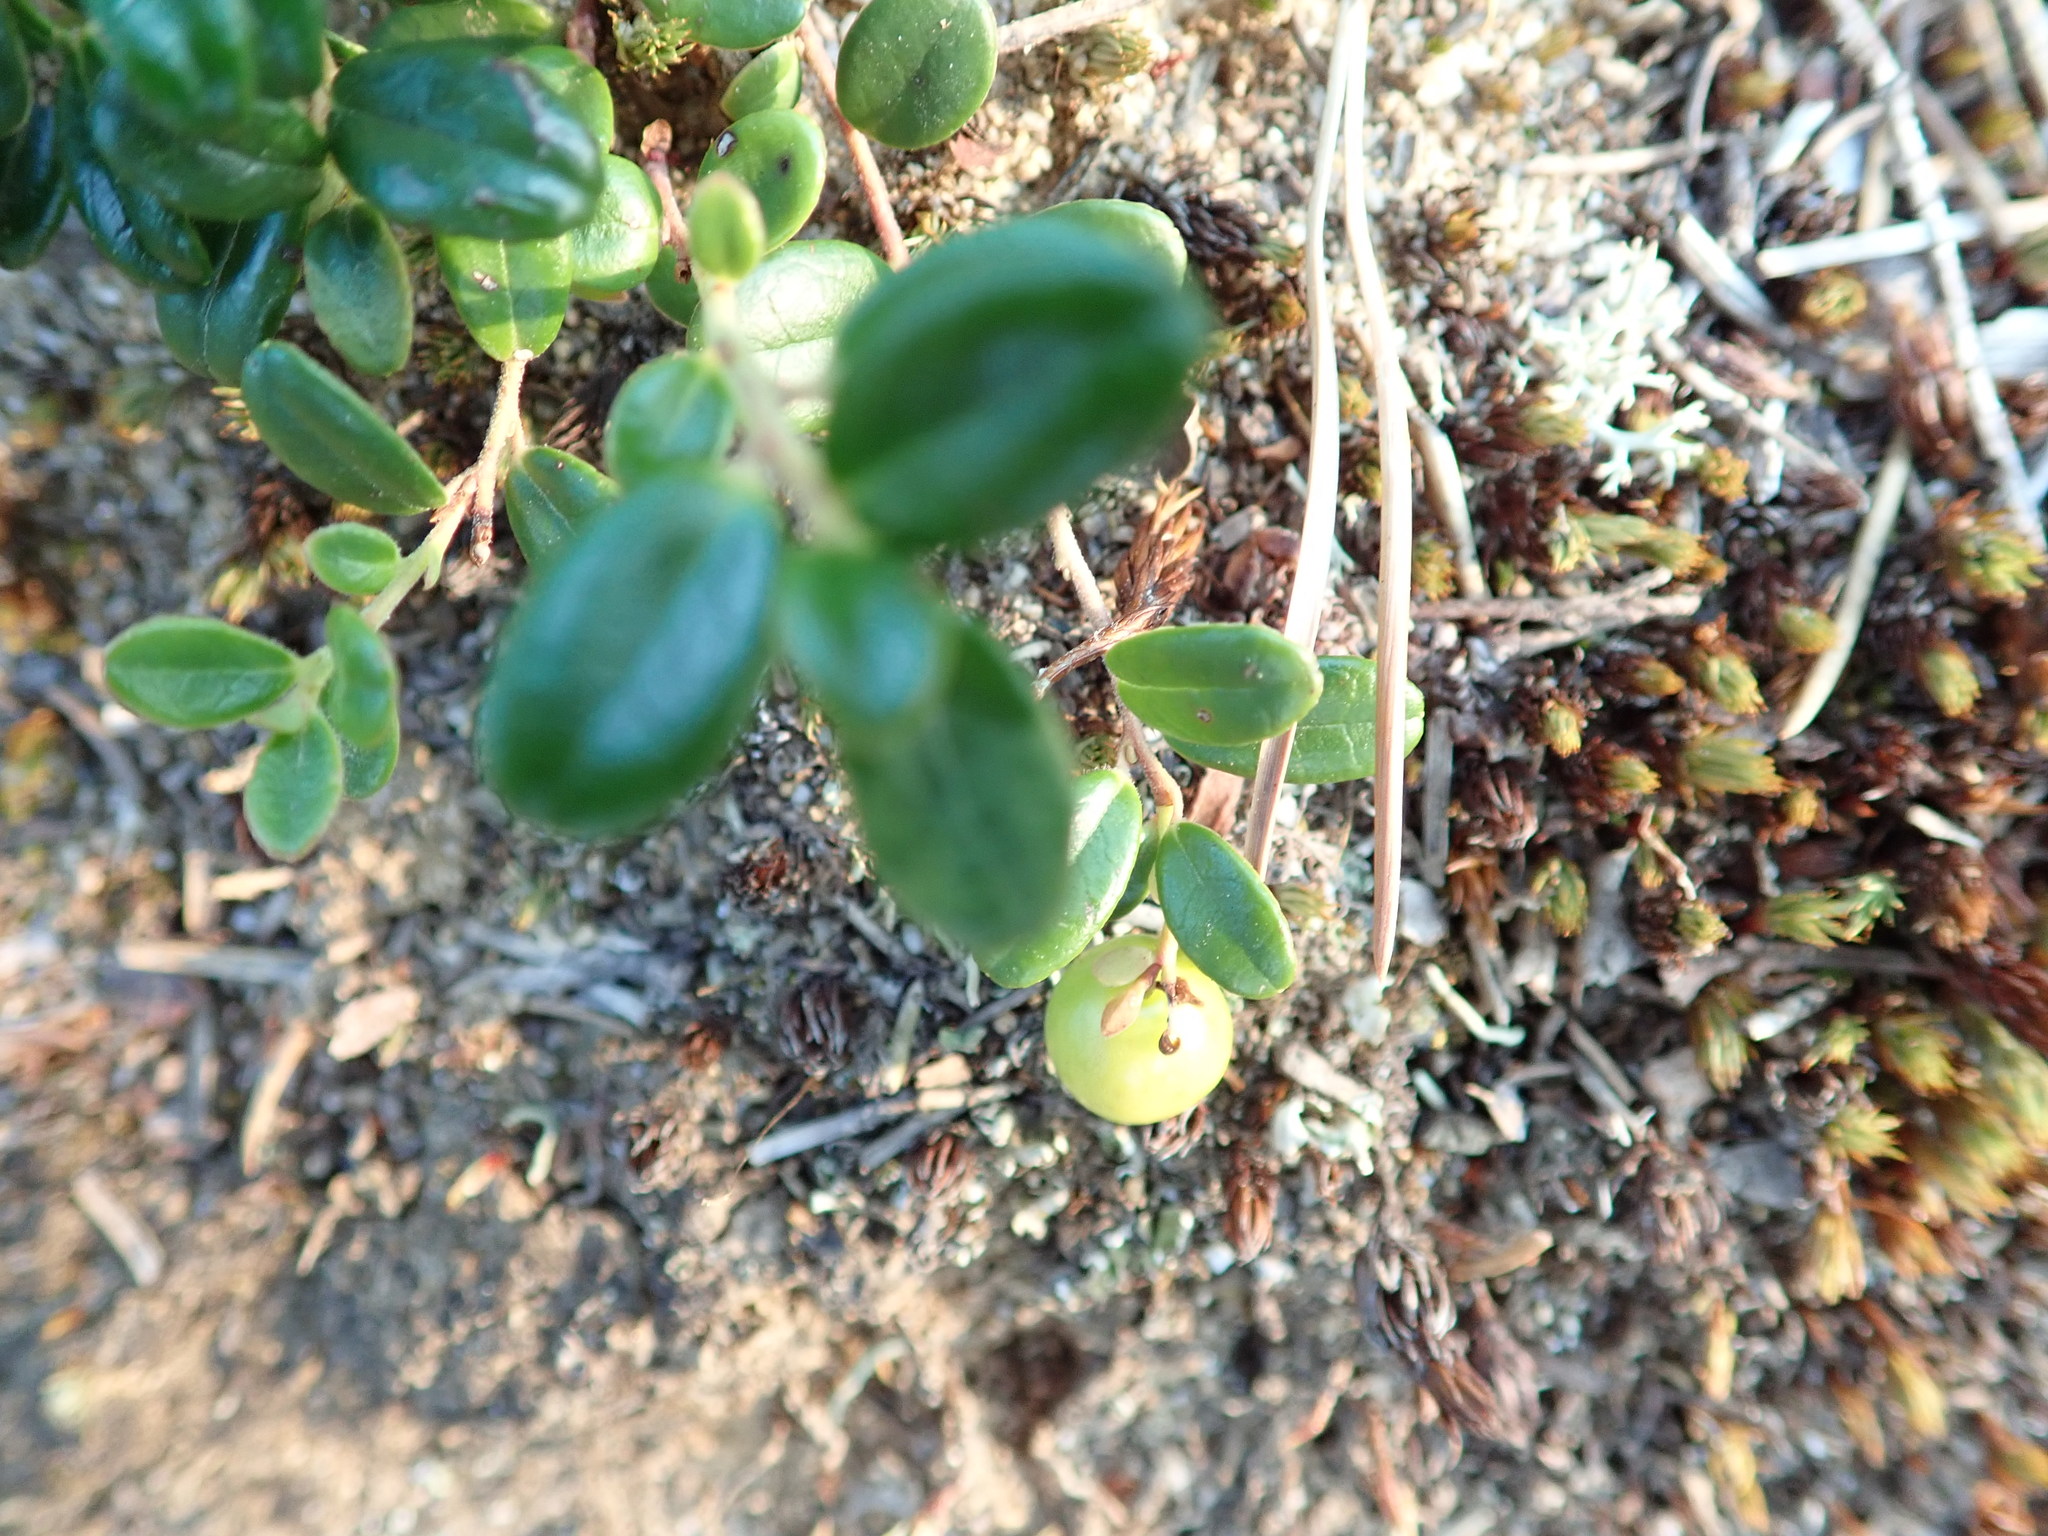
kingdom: Plantae
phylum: Tracheophyta
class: Magnoliopsida
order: Ericales
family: Ericaceae
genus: Vaccinium
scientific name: Vaccinium vitis-idaea
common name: Cowberry
